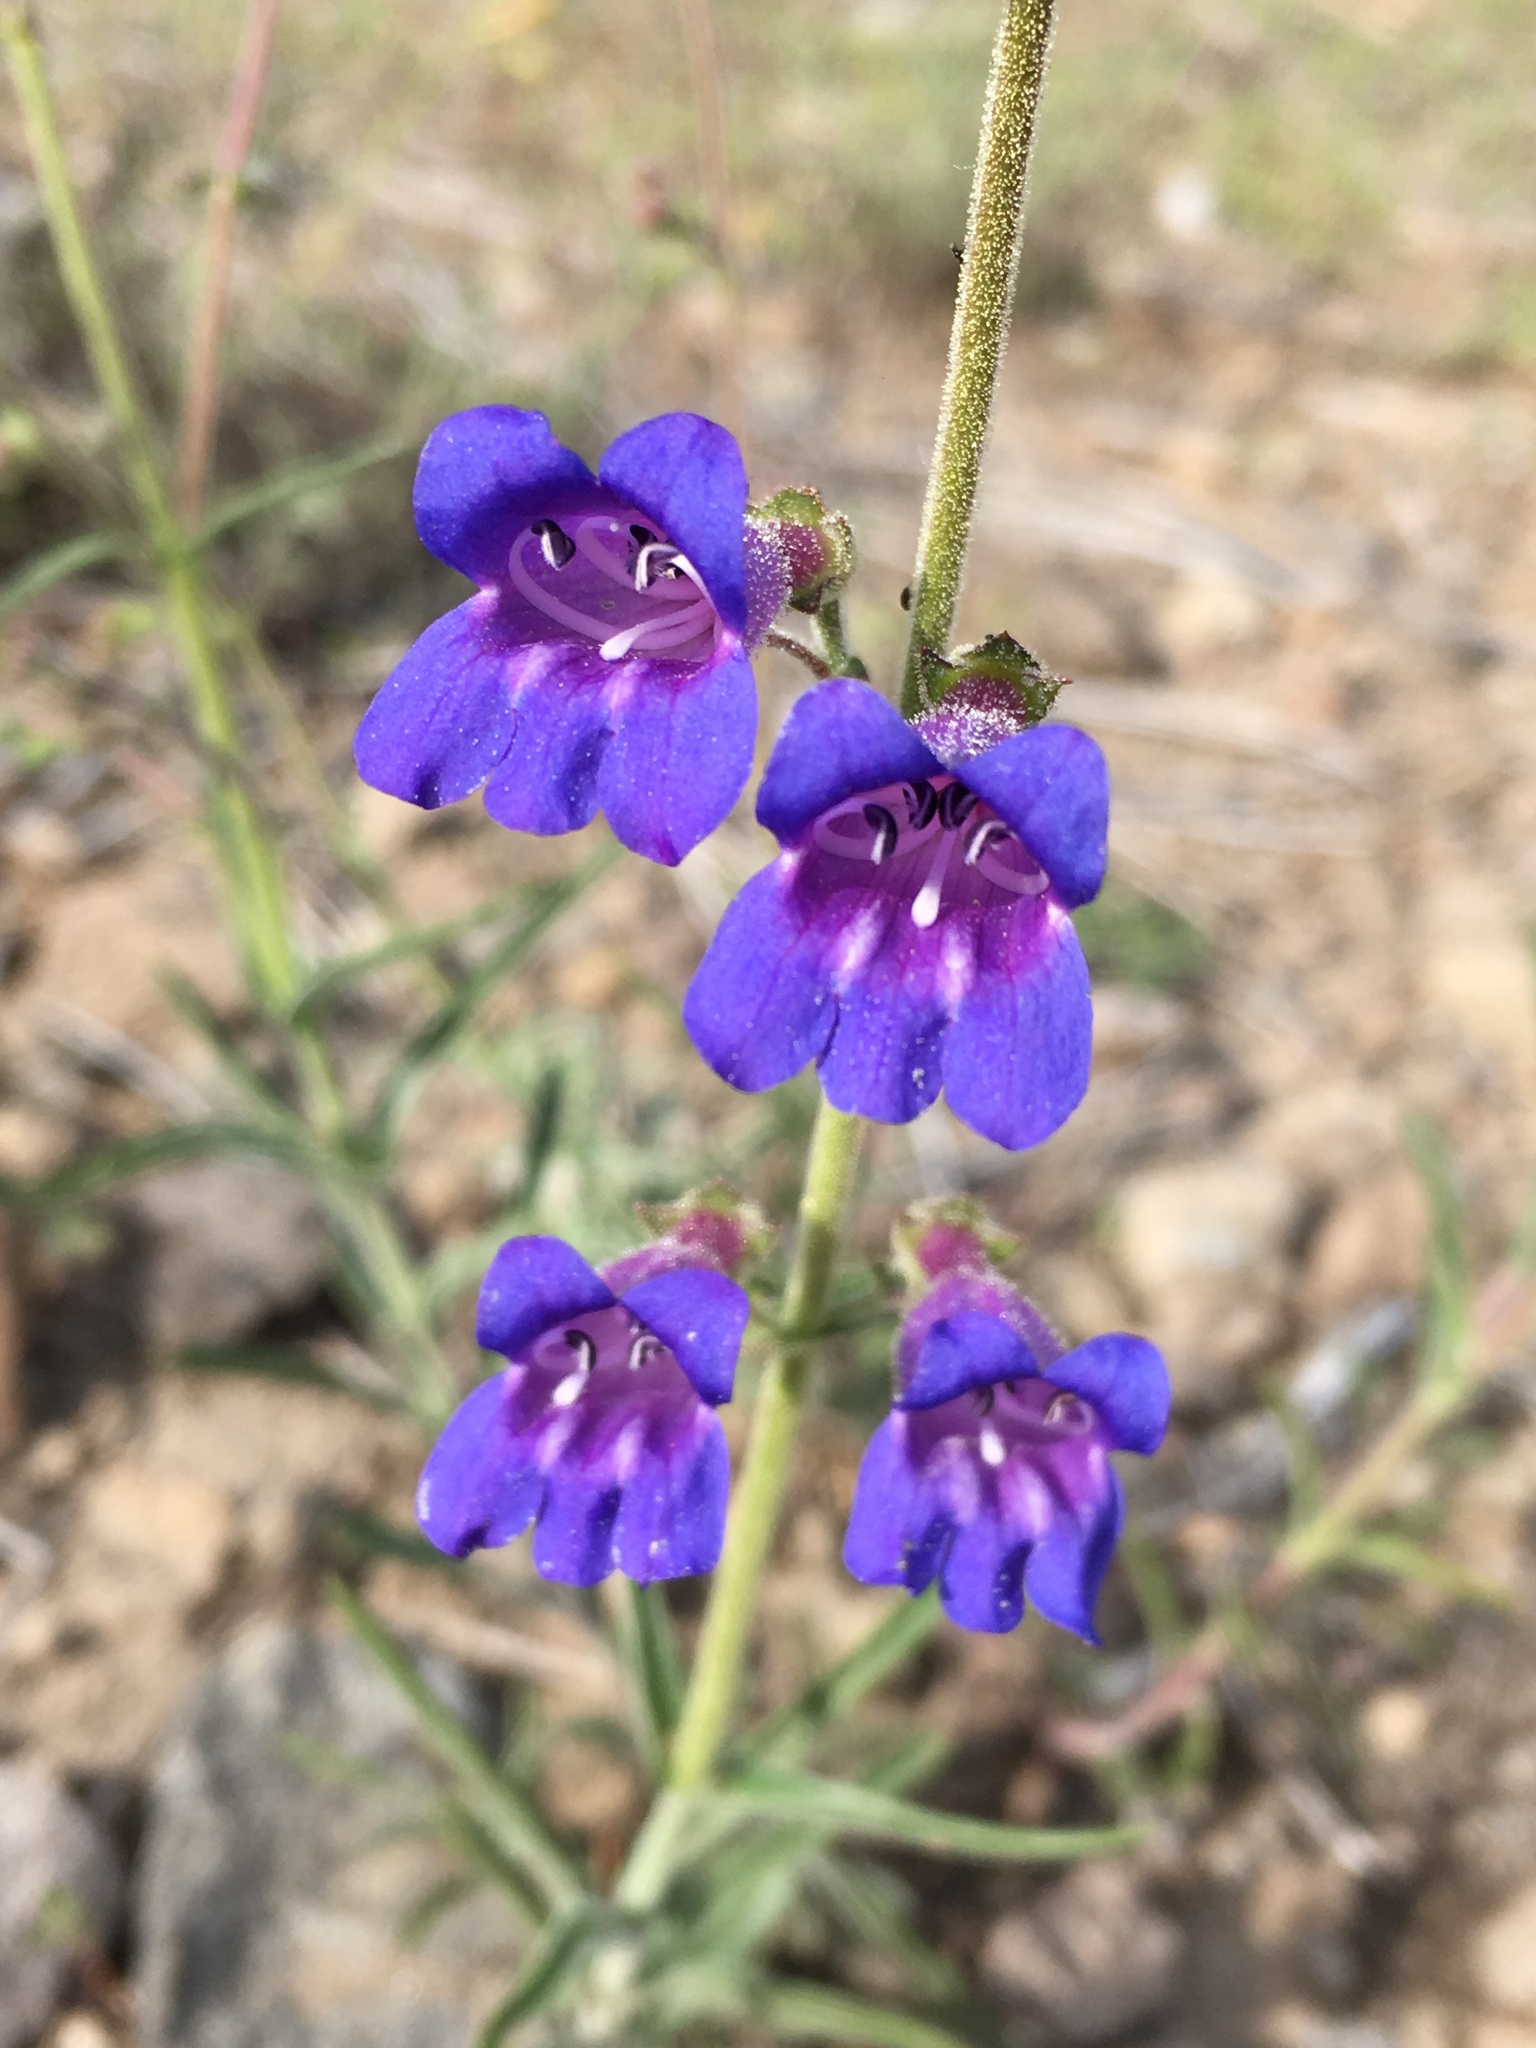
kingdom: Plantae
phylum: Tracheophyta
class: Magnoliopsida
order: Lamiales
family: Plantaginaceae
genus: Penstemon
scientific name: Penstemon roezlii
